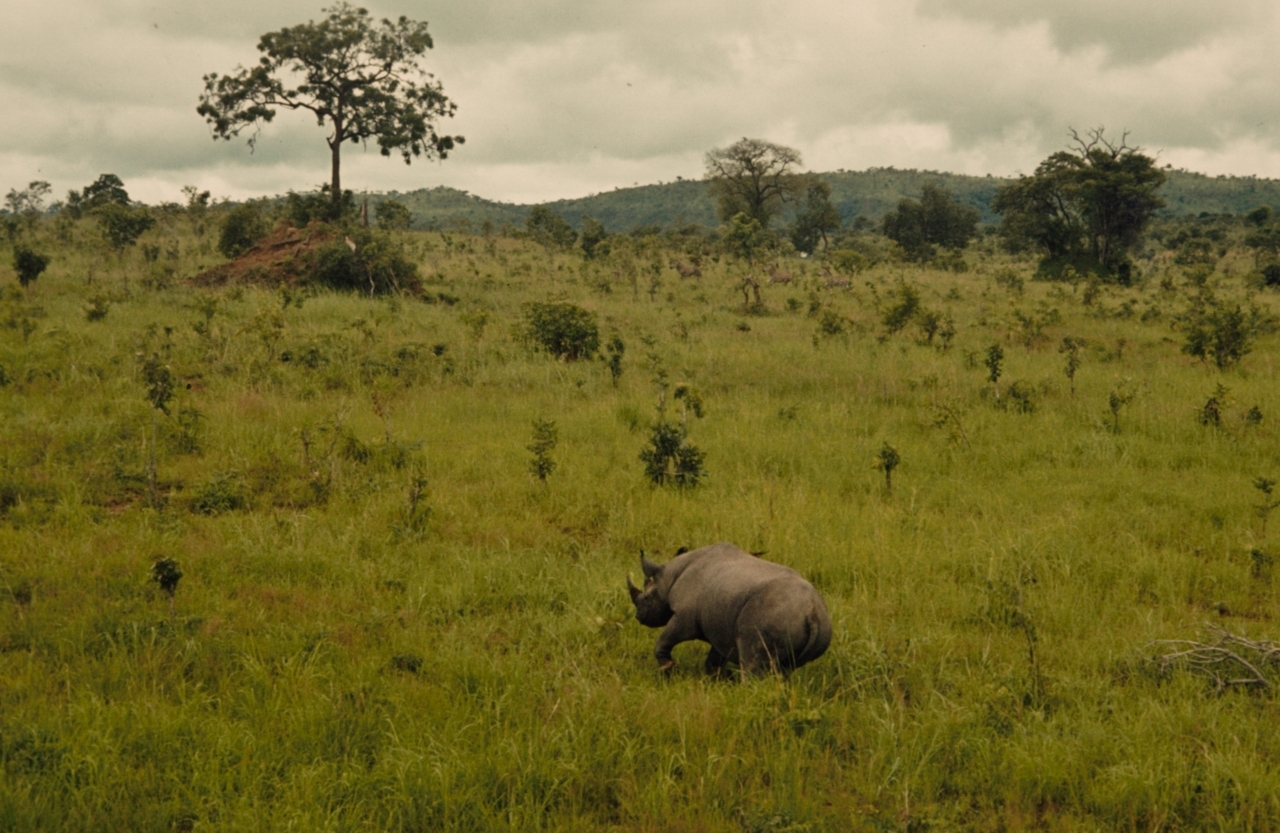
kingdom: Animalia
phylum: Chordata
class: Mammalia
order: Perissodactyla
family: Rhinocerotidae
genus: Diceros
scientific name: Diceros bicornis
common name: Black rhinoceros
